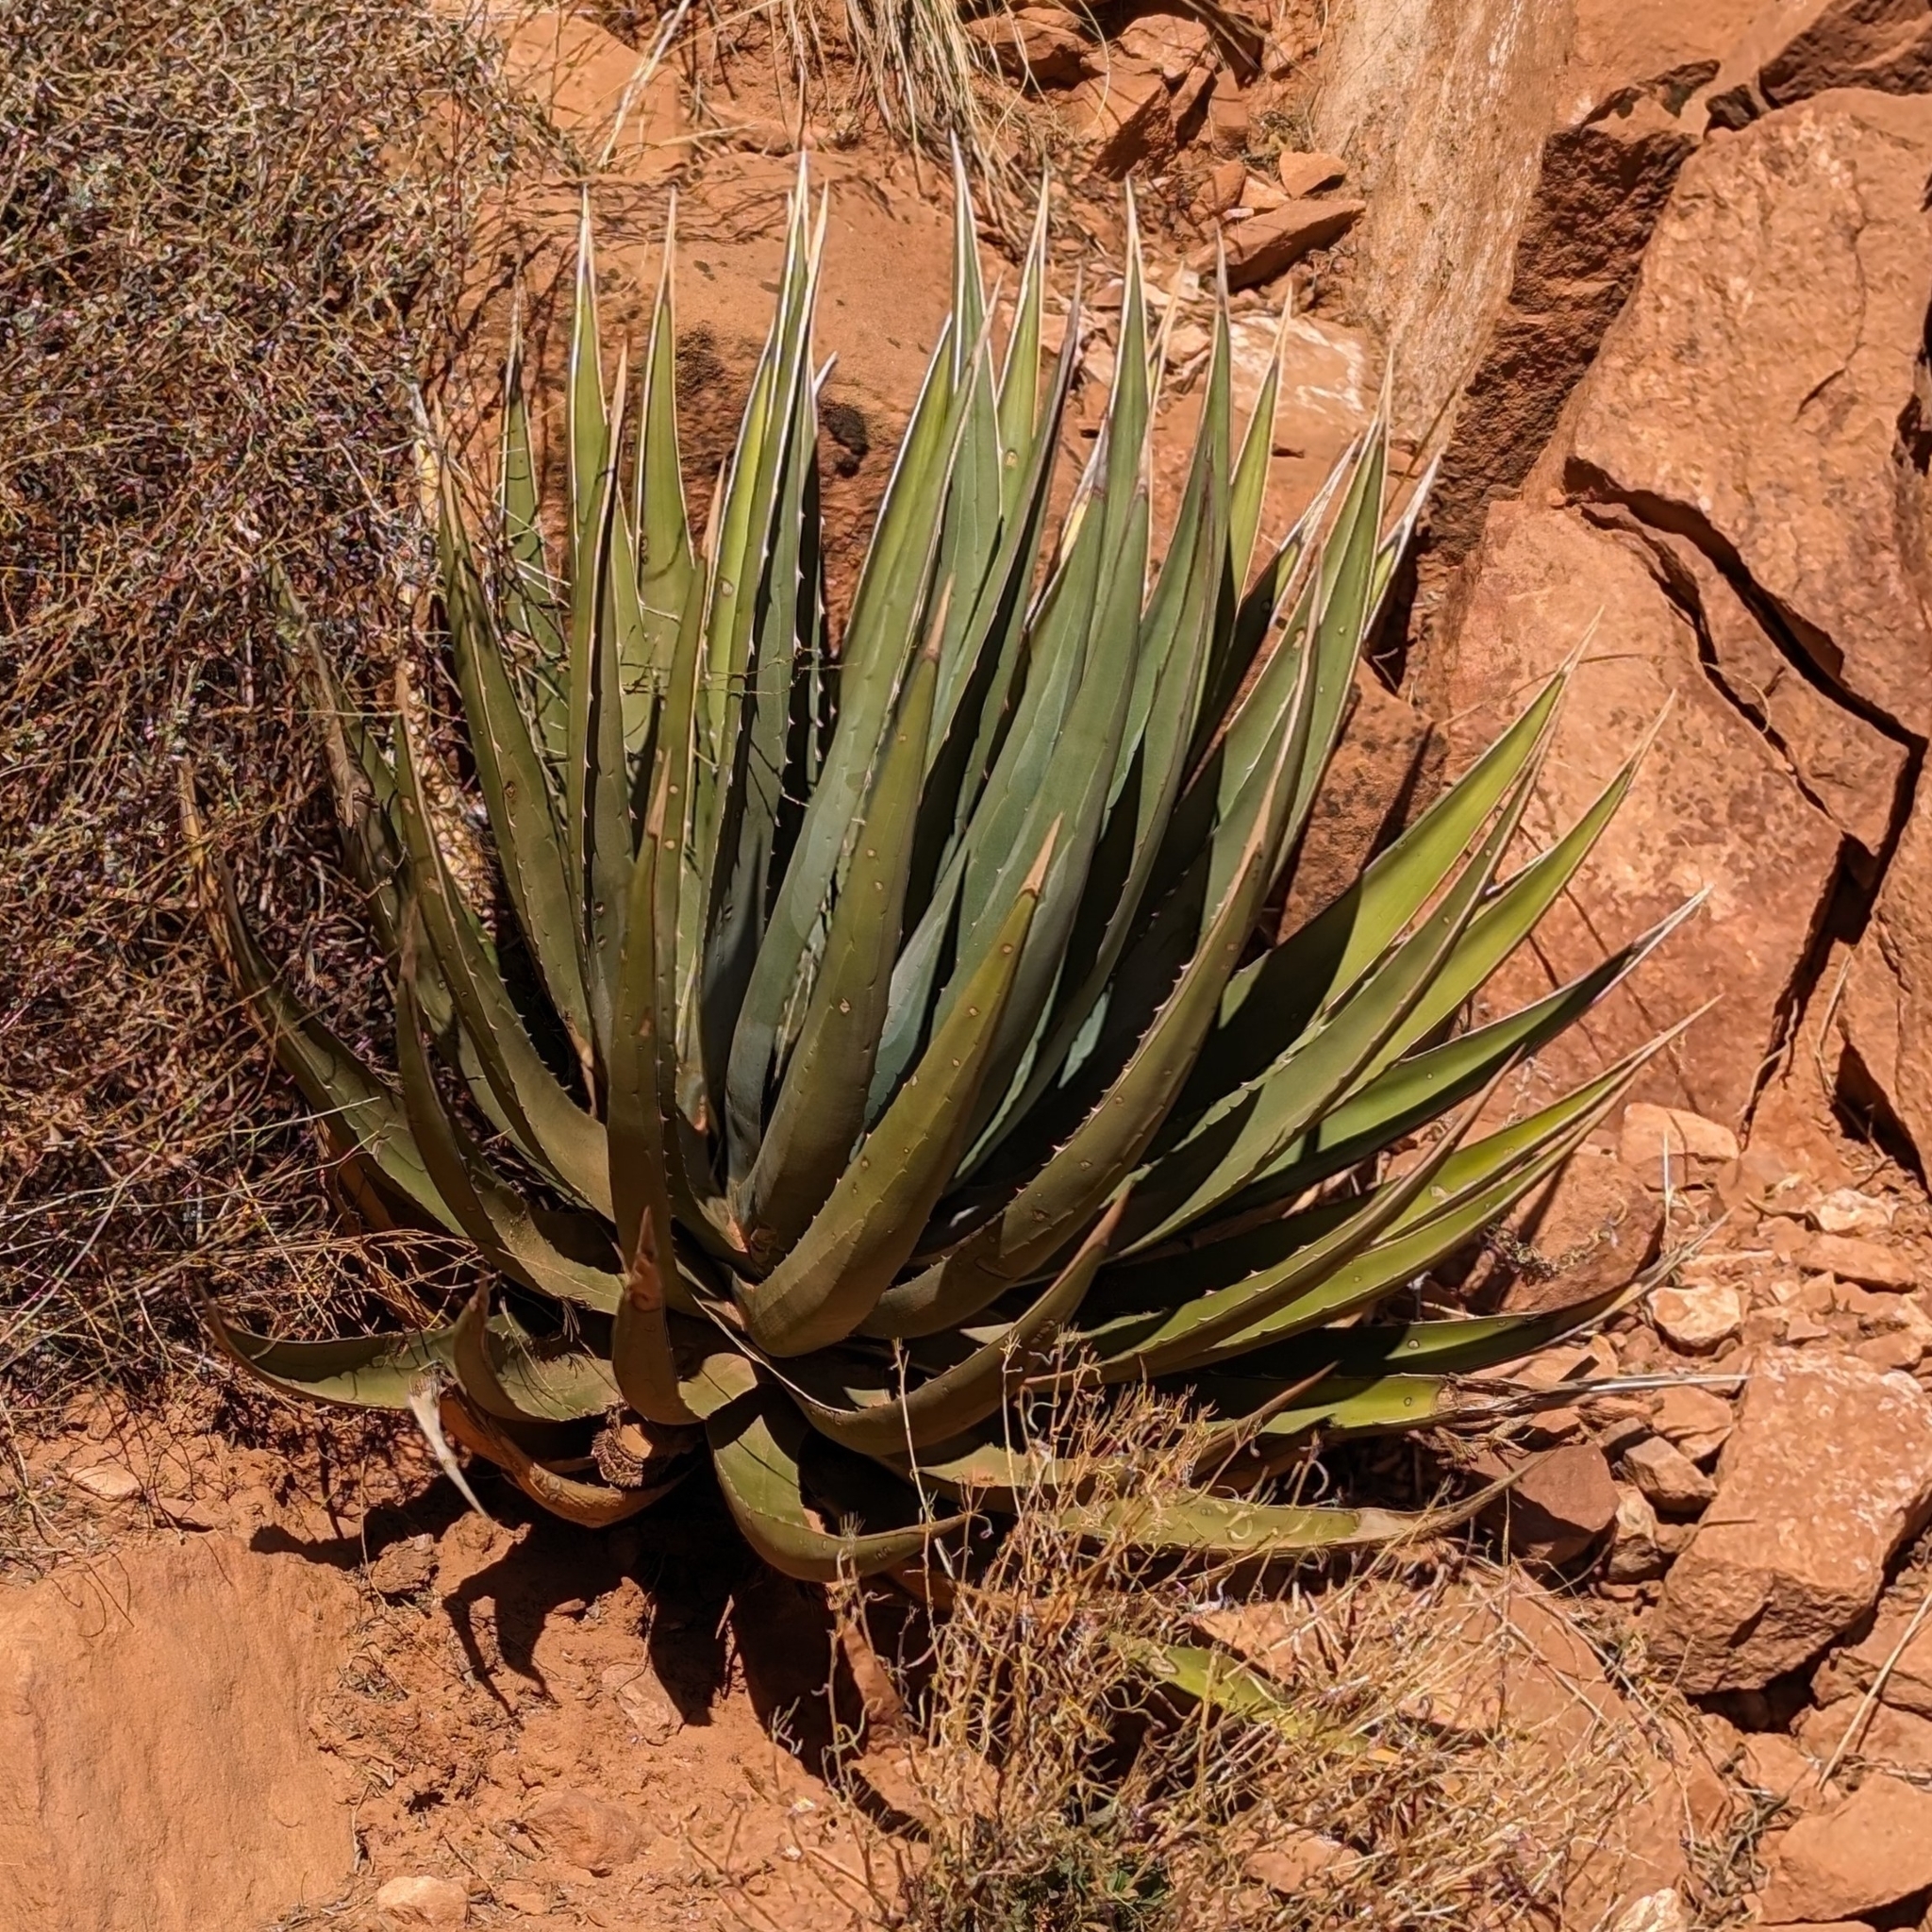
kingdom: Plantae
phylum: Tracheophyta
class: Liliopsida
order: Asparagales
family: Asparagaceae
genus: Agave
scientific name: Agave utahensis
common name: Utah agave
